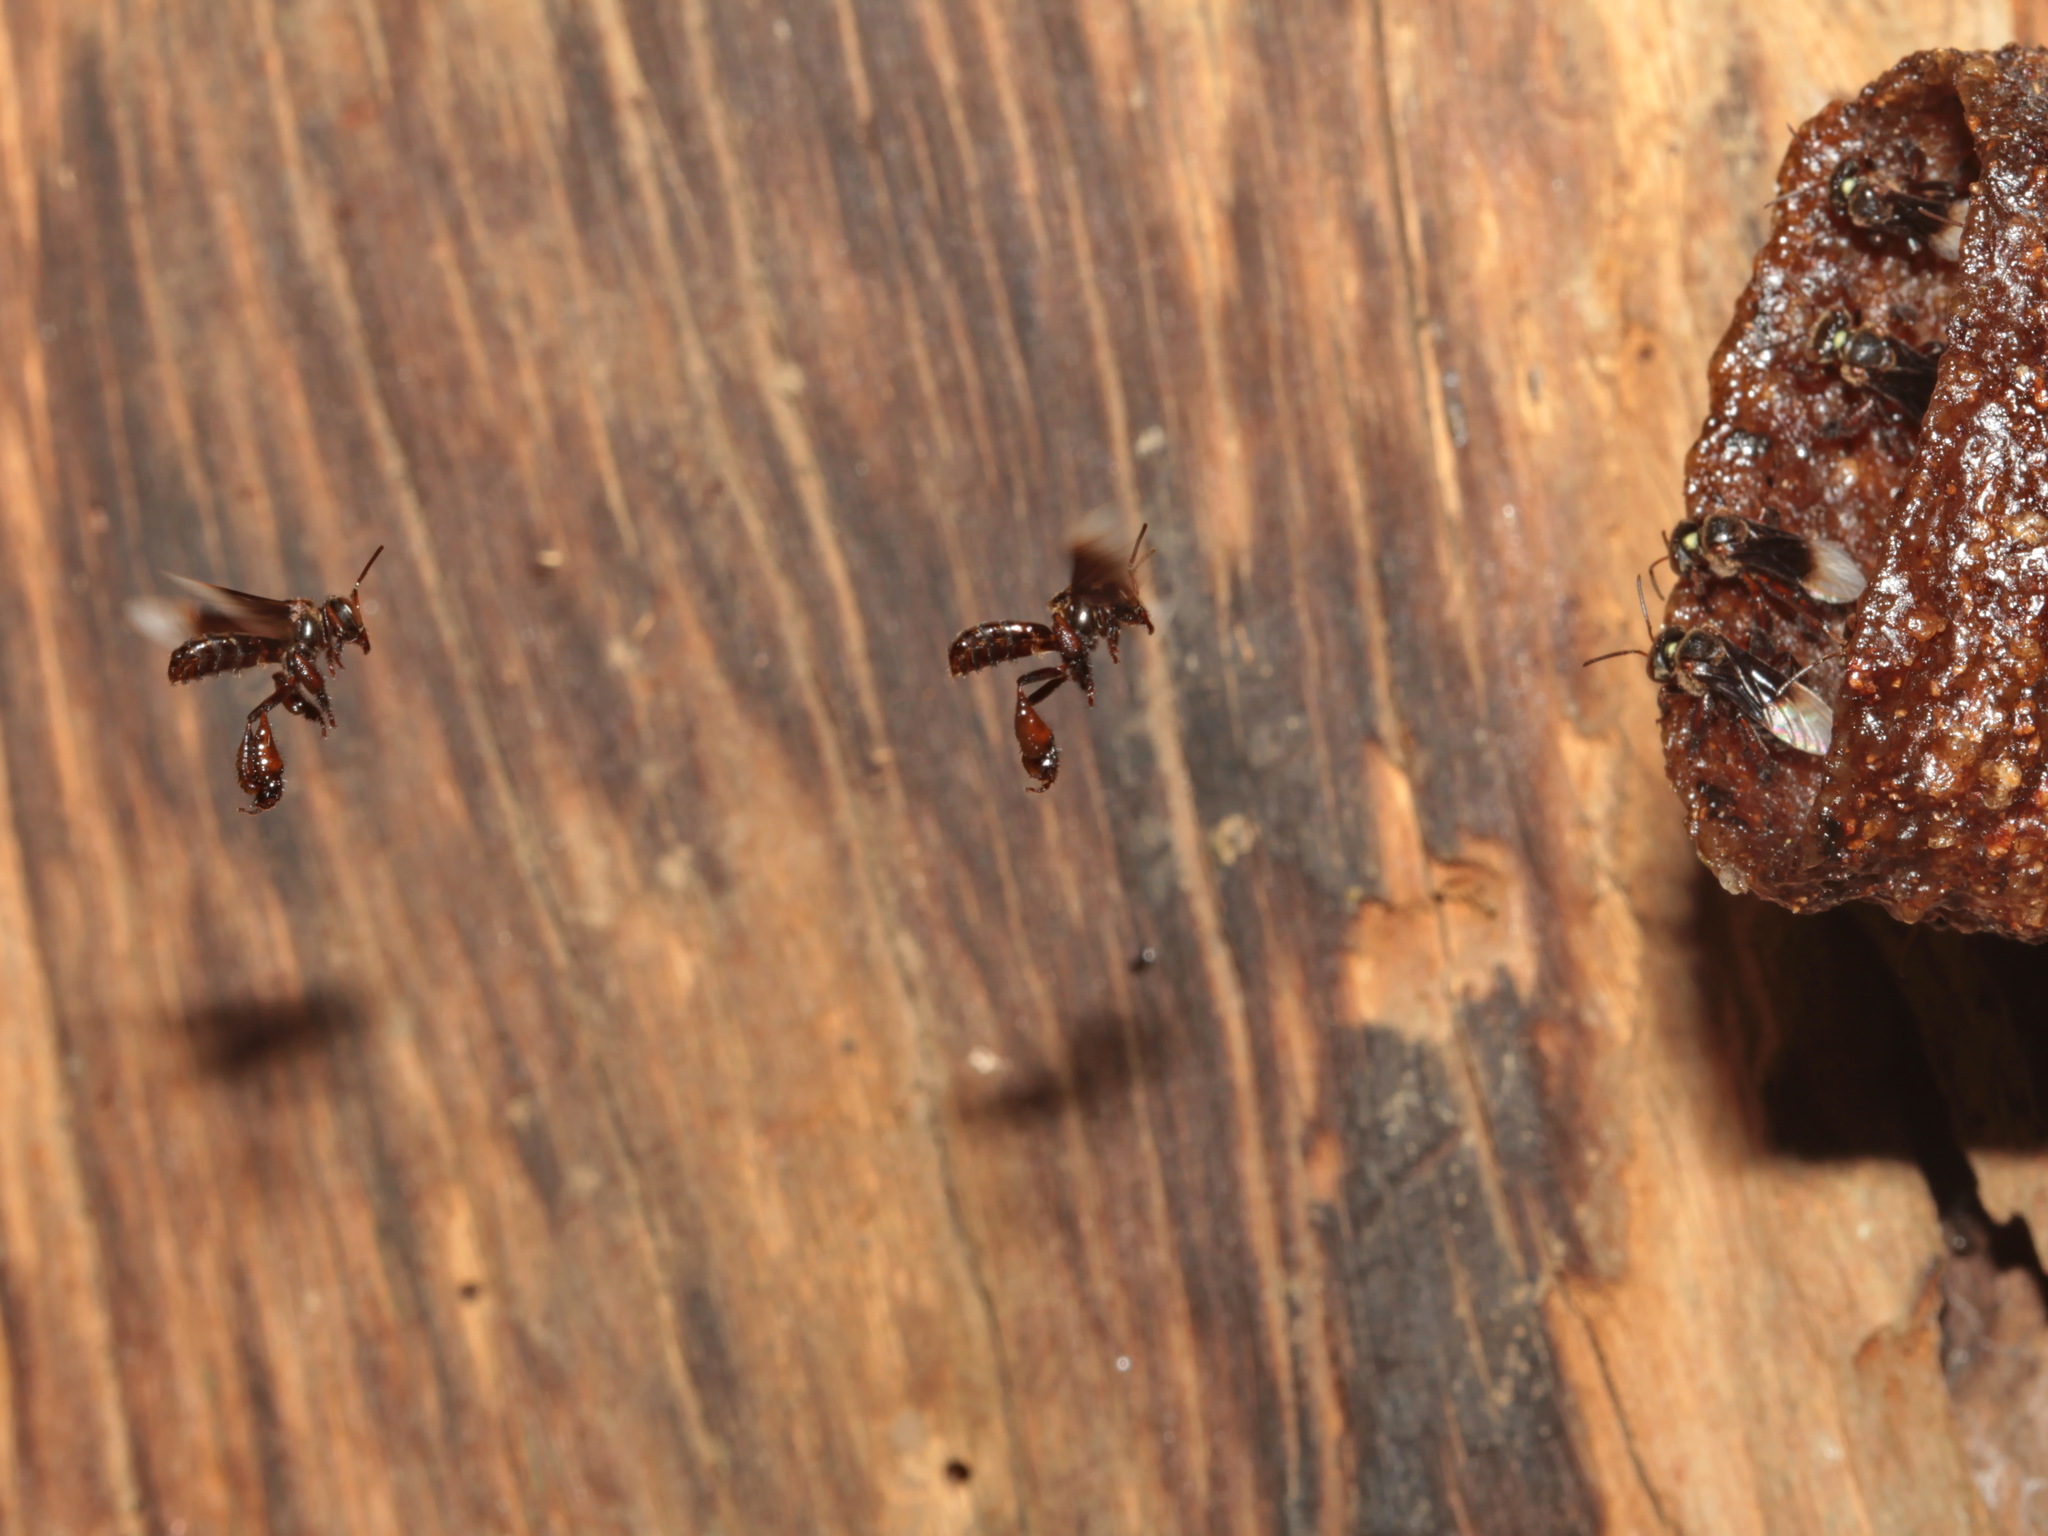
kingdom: Animalia
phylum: Arthropoda
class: Insecta
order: Hymenoptera
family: Apidae
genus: Homotrigona
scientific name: Homotrigona apicalis
